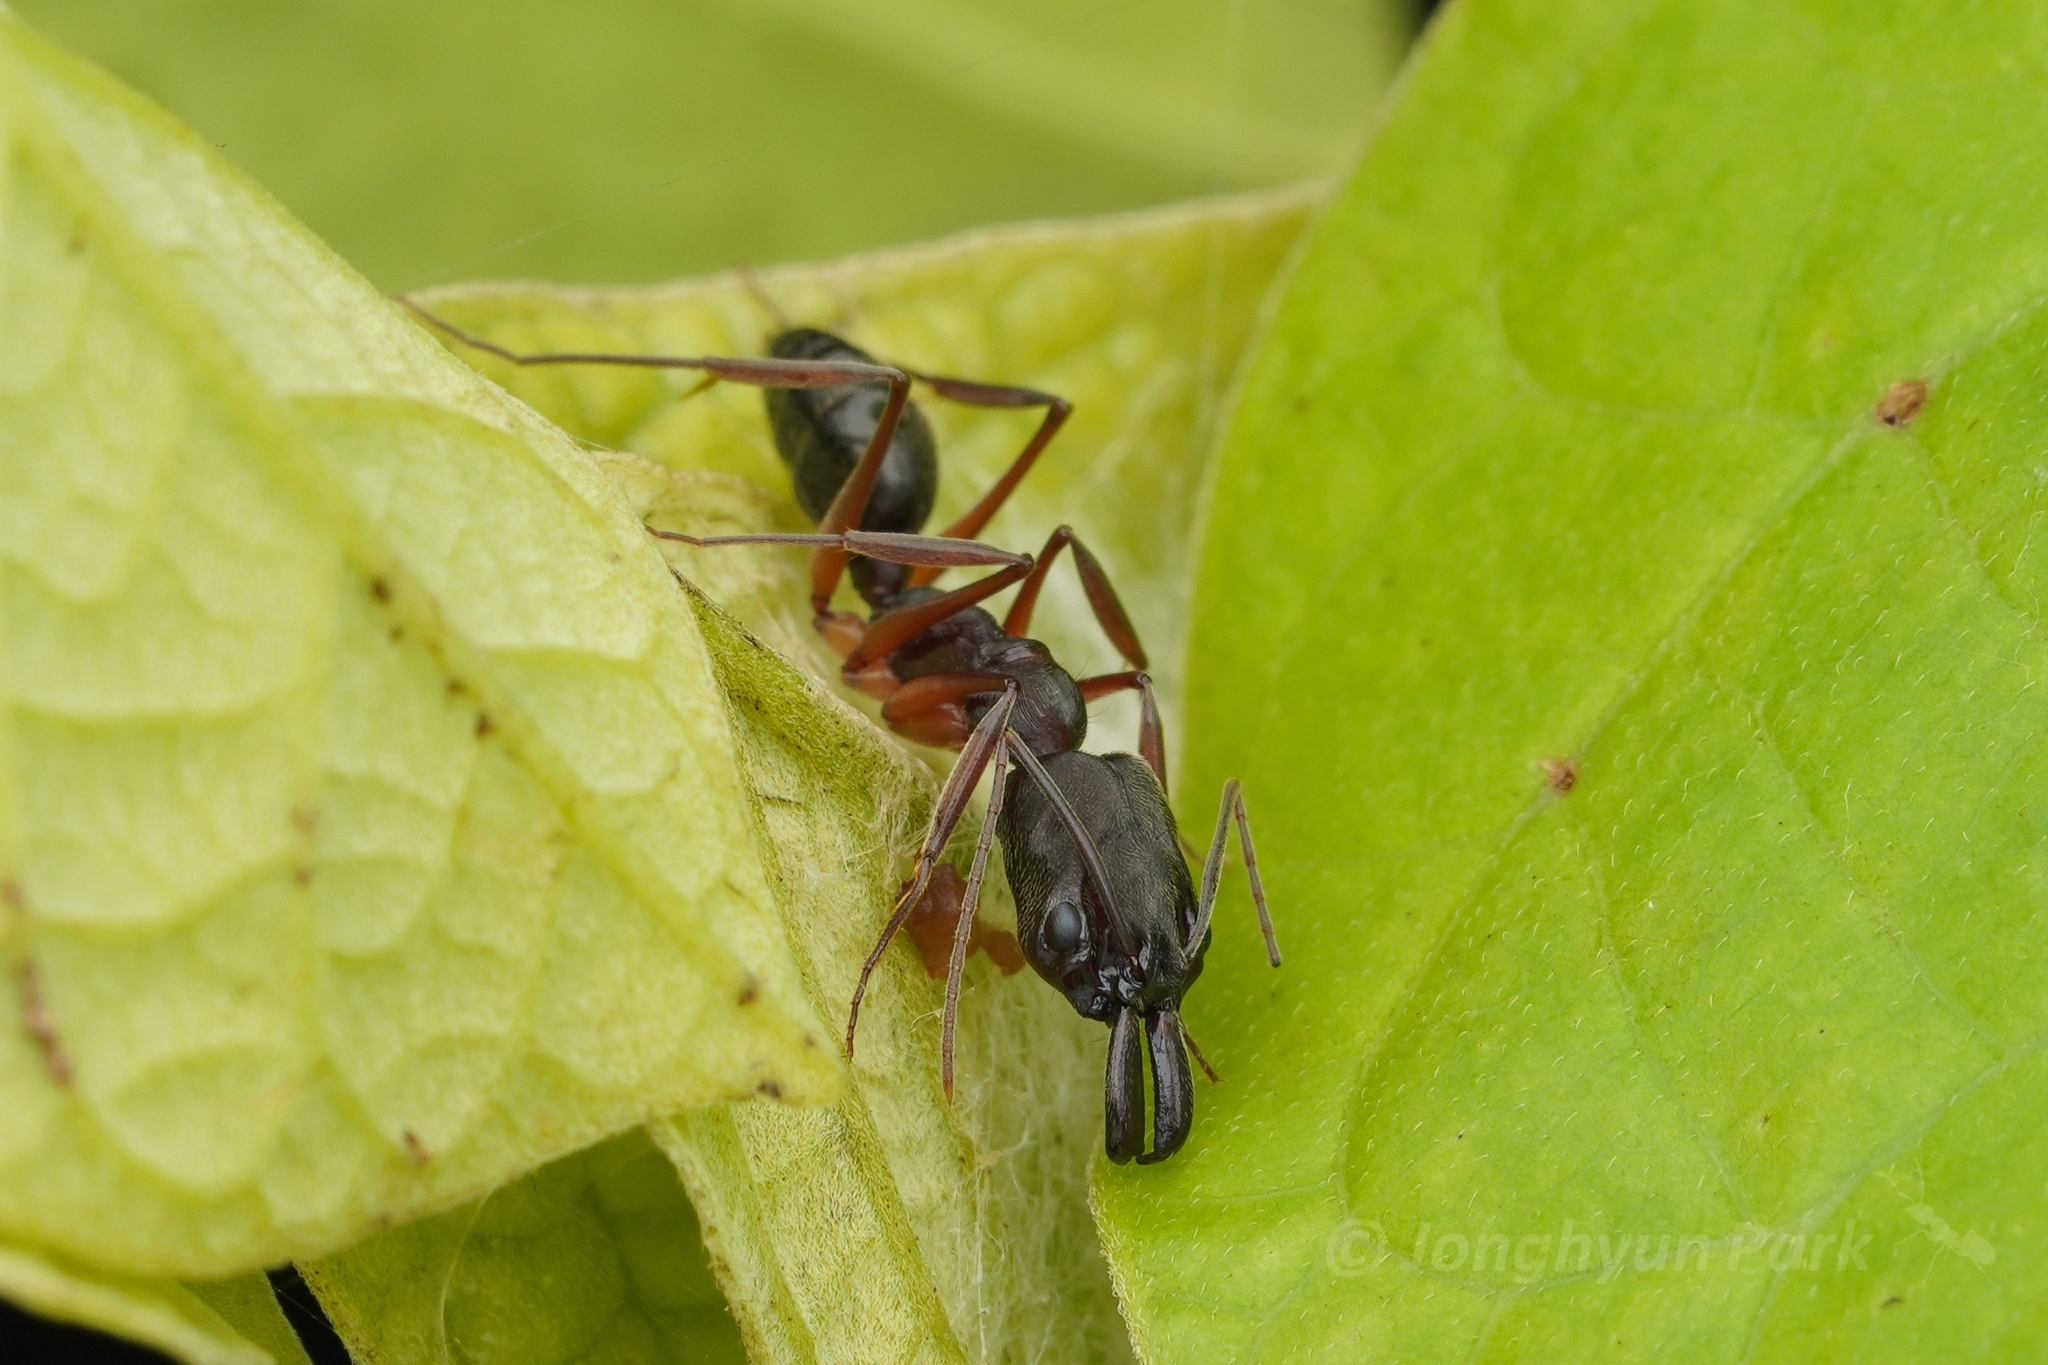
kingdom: Animalia
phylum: Arthropoda
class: Insecta
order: Hymenoptera
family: Formicidae
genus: Odontomachus
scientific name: Odontomachus haematodus
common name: Two-spined trapjaw ant
